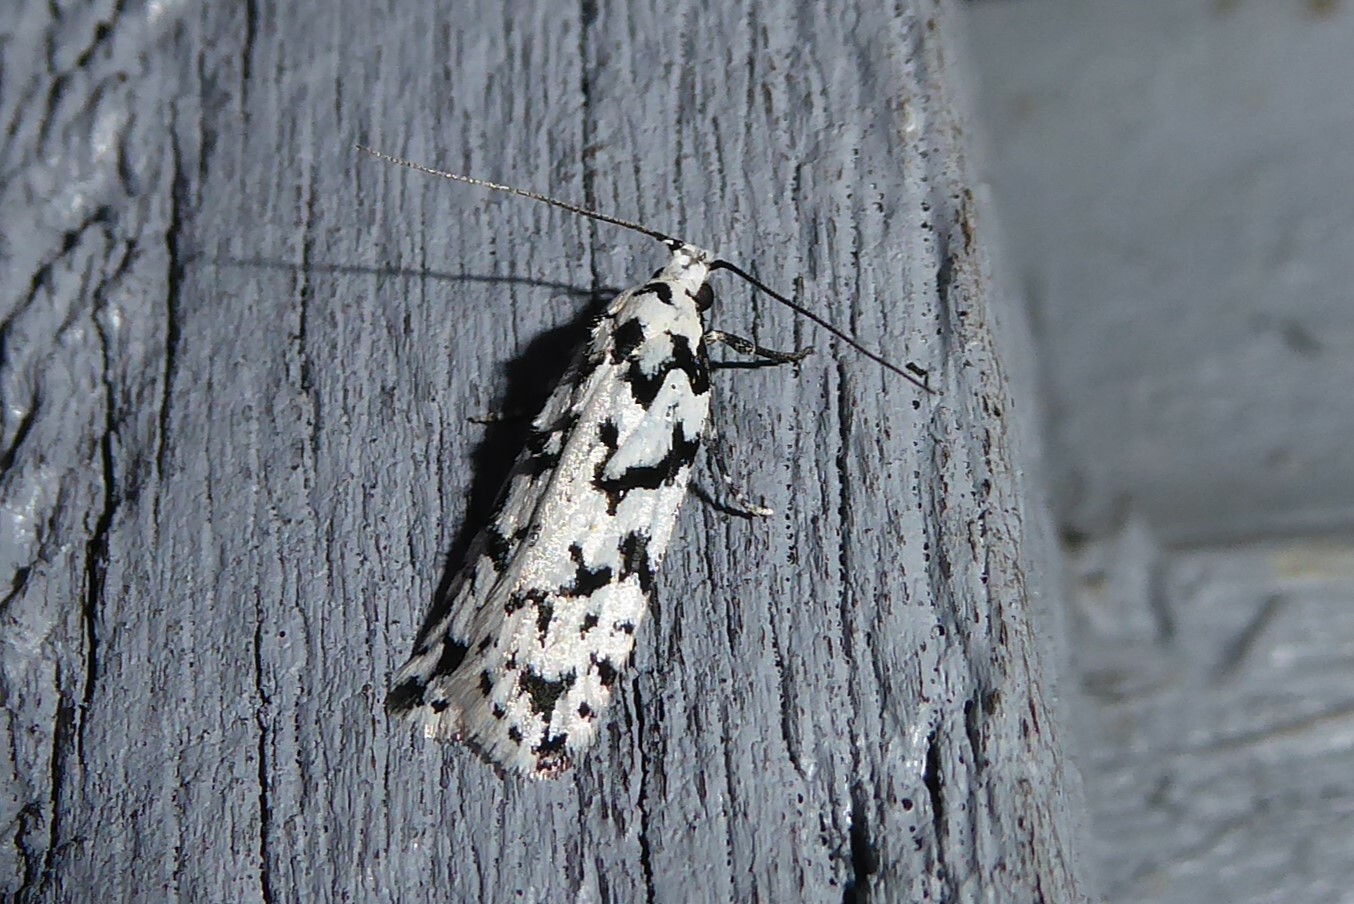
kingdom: Animalia
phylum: Arthropoda
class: Insecta
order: Lepidoptera
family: Oecophoridae
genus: Izatha
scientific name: Izatha katadiktya
